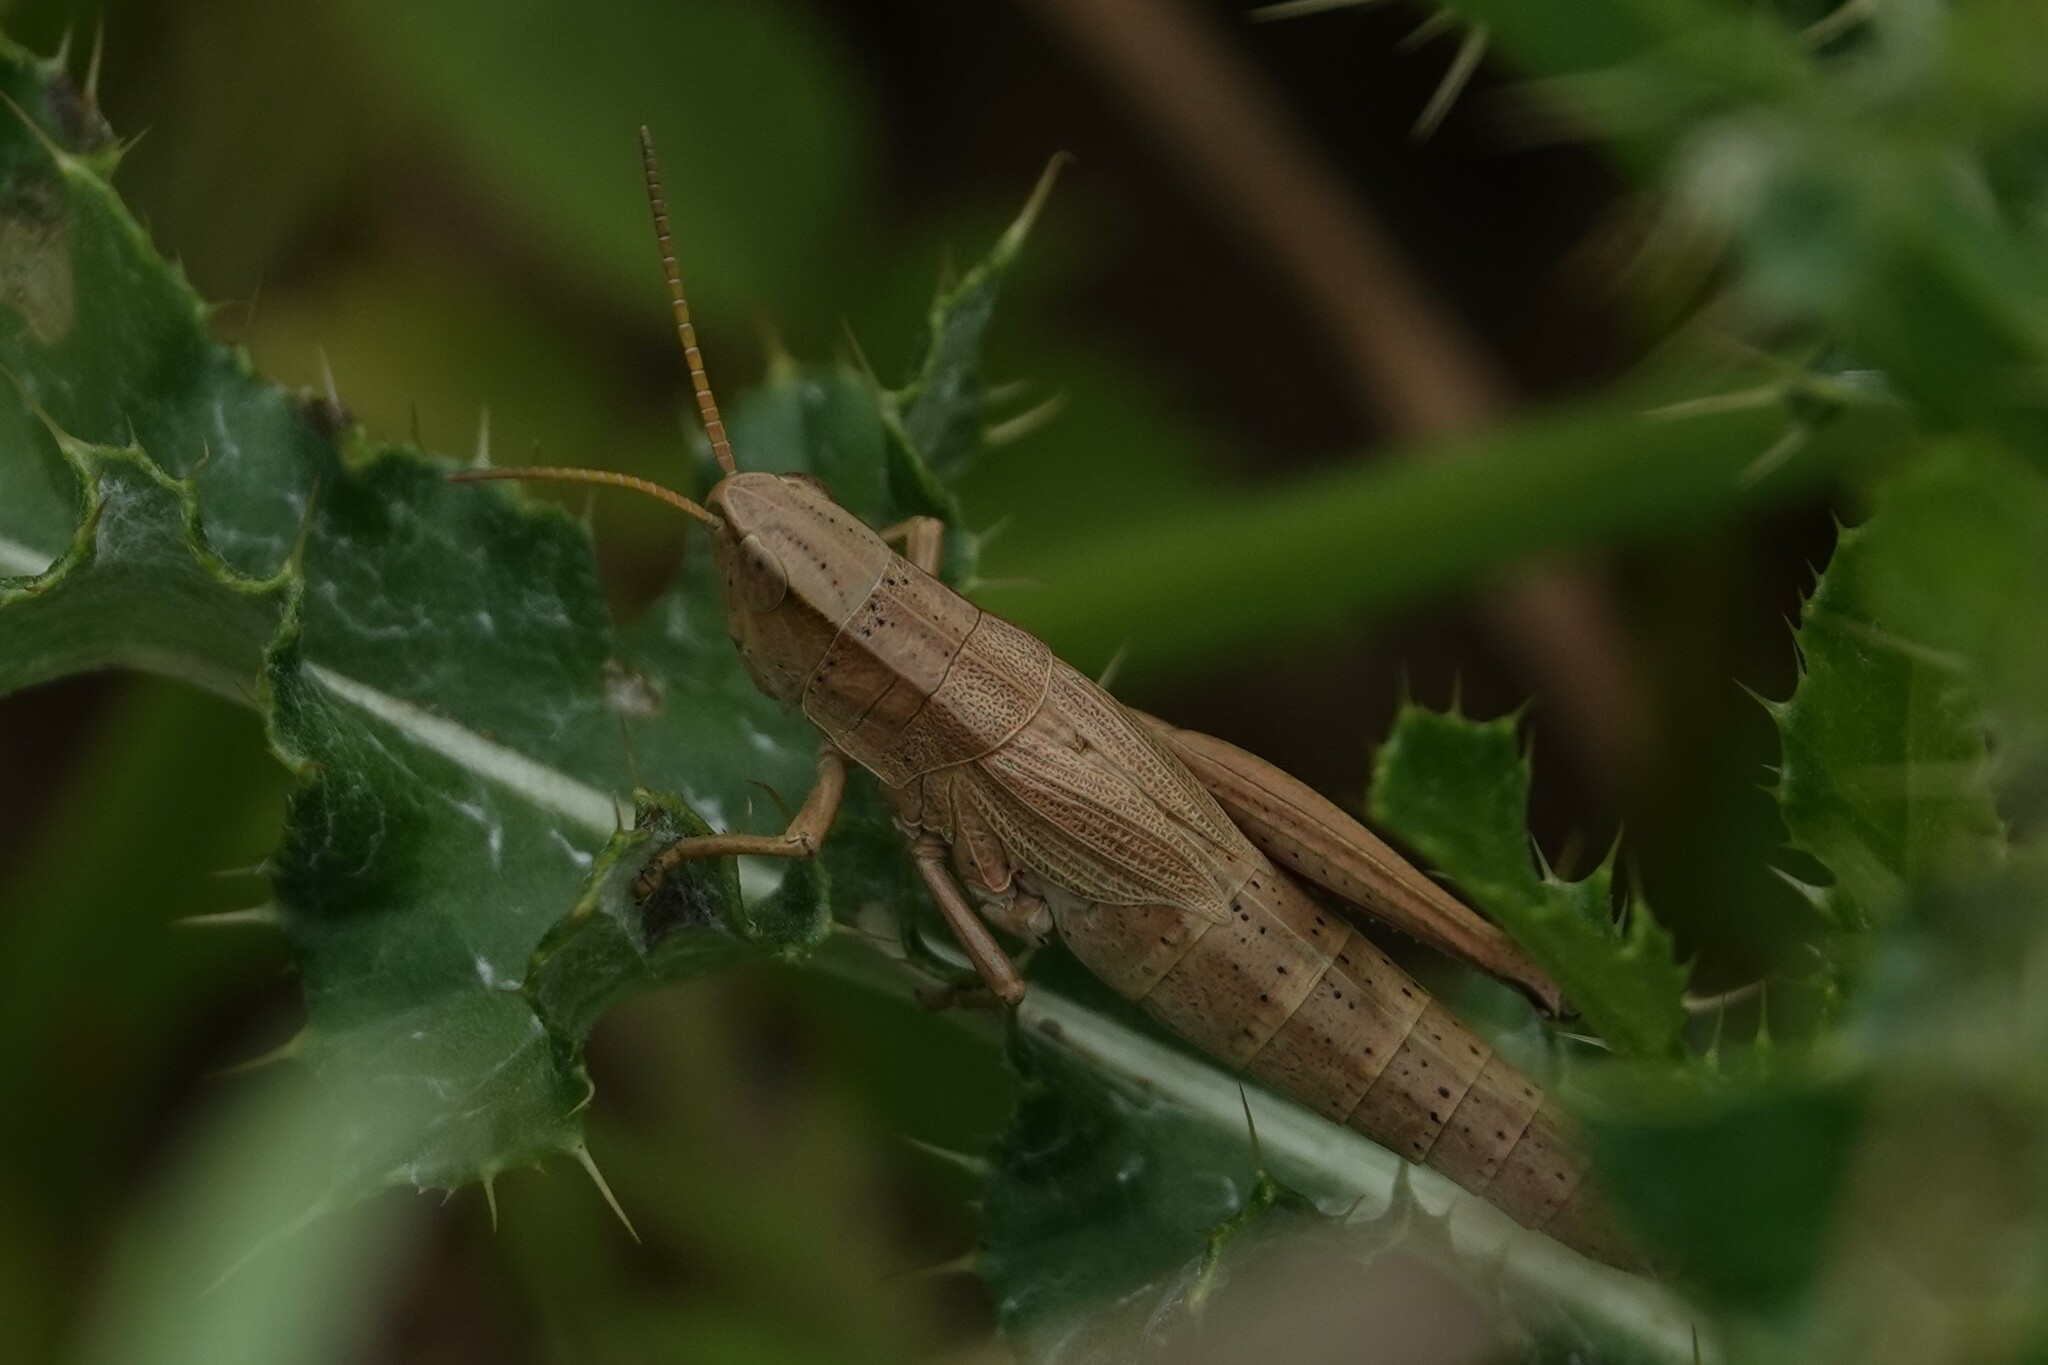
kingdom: Animalia
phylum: Arthropoda
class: Insecta
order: Orthoptera
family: Acrididae
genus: Chrysochraon
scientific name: Chrysochraon dispar
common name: Large gold grasshopper
